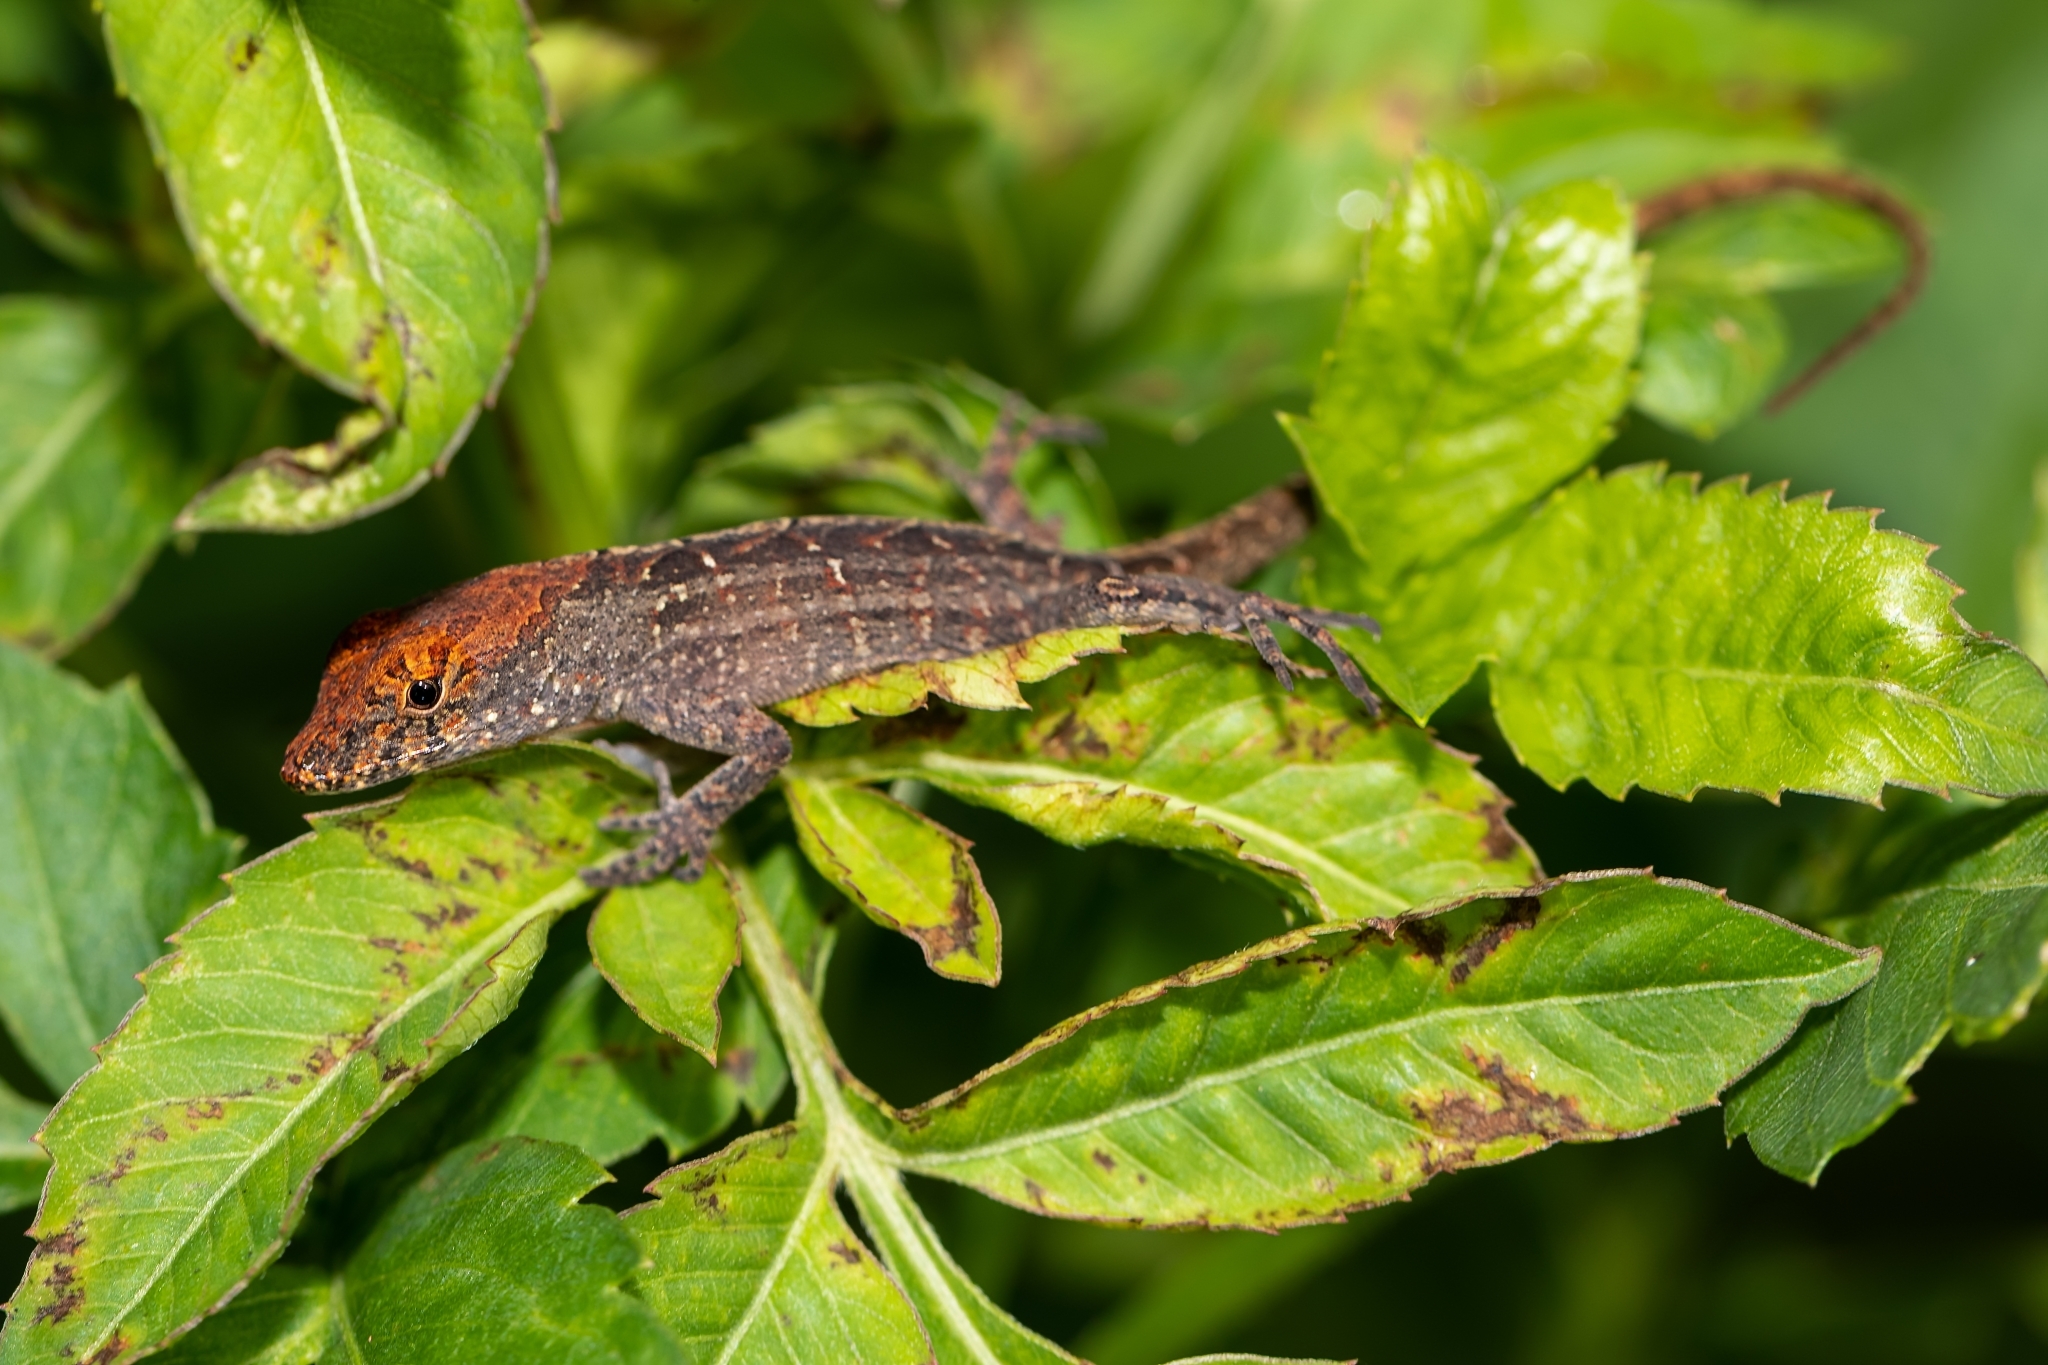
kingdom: Animalia
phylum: Chordata
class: Squamata
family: Dactyloidae
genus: Anolis
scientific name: Anolis sagrei
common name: Brown anole
